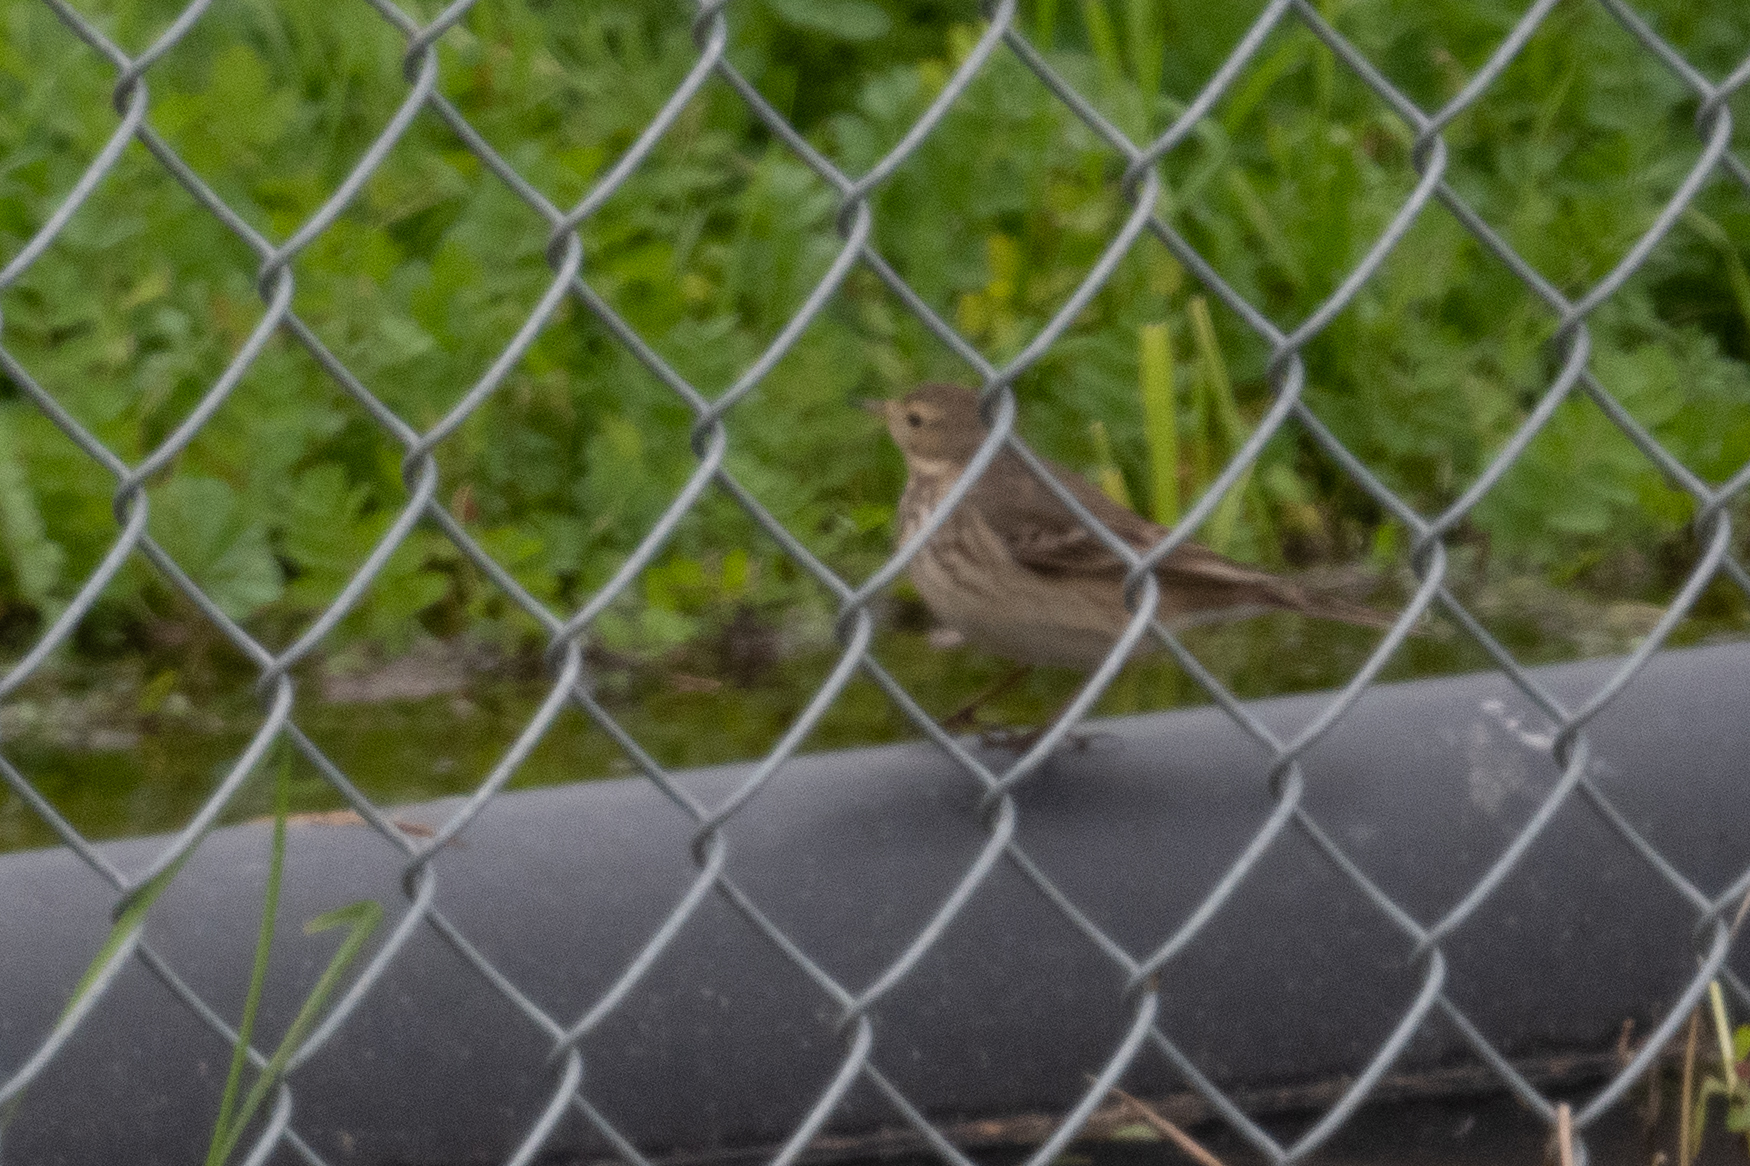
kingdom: Animalia
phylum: Chordata
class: Aves
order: Passeriformes
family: Motacillidae
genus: Anthus
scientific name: Anthus rubescens
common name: Buff-bellied pipit
